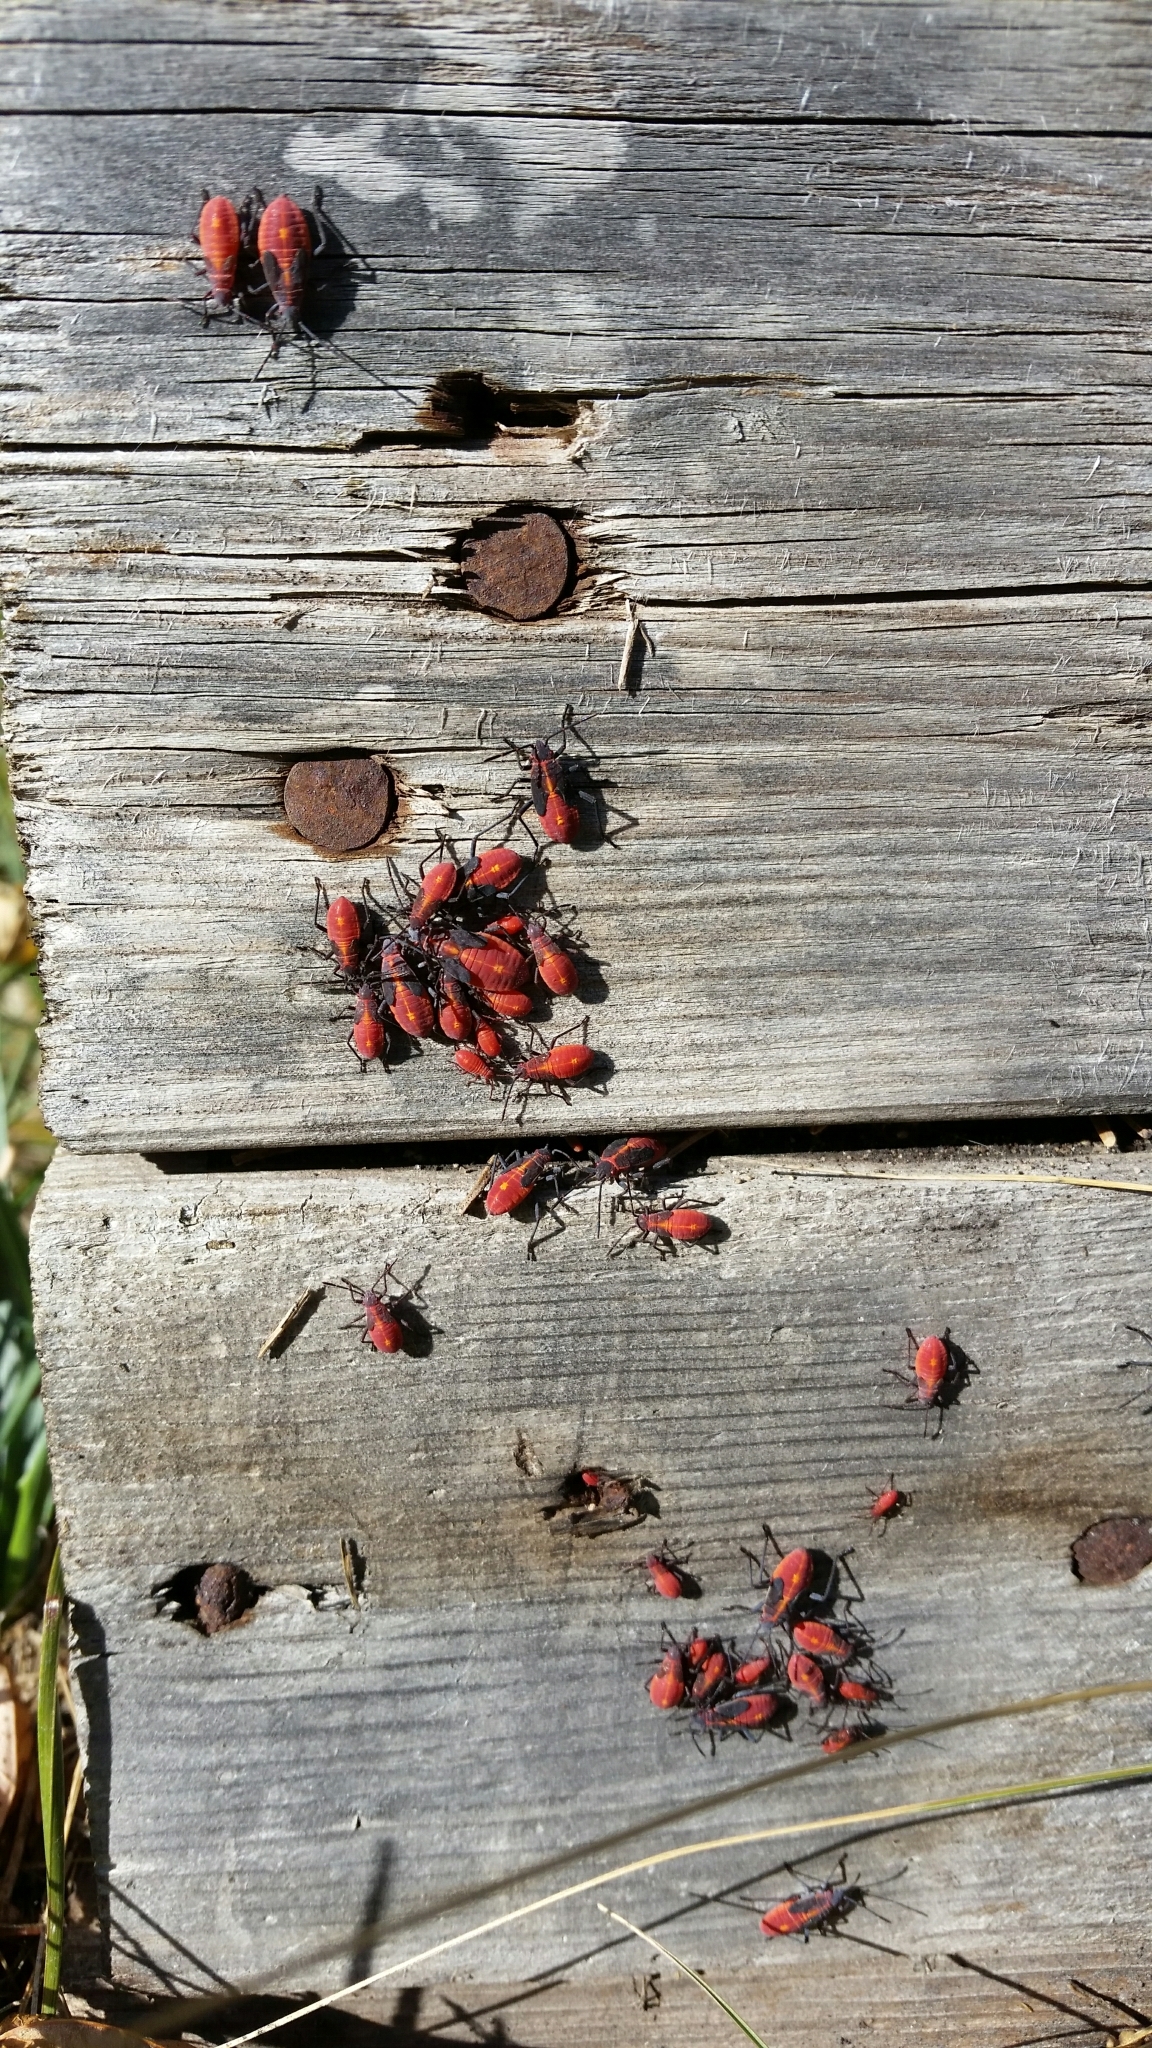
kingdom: Animalia
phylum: Arthropoda
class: Insecta
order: Hemiptera
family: Rhopalidae
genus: Boisea
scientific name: Boisea trivittata
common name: Boxelder bug
